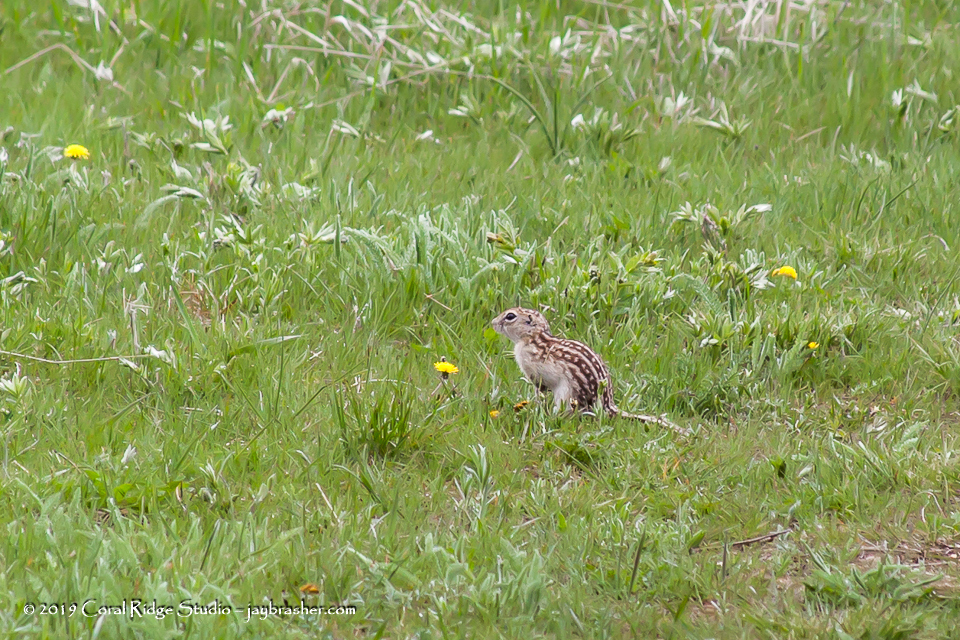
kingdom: Animalia
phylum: Chordata
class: Mammalia
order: Rodentia
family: Sciuridae
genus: Ictidomys
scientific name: Ictidomys tridecemlineatus
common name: Thirteen-lined ground squirrel
